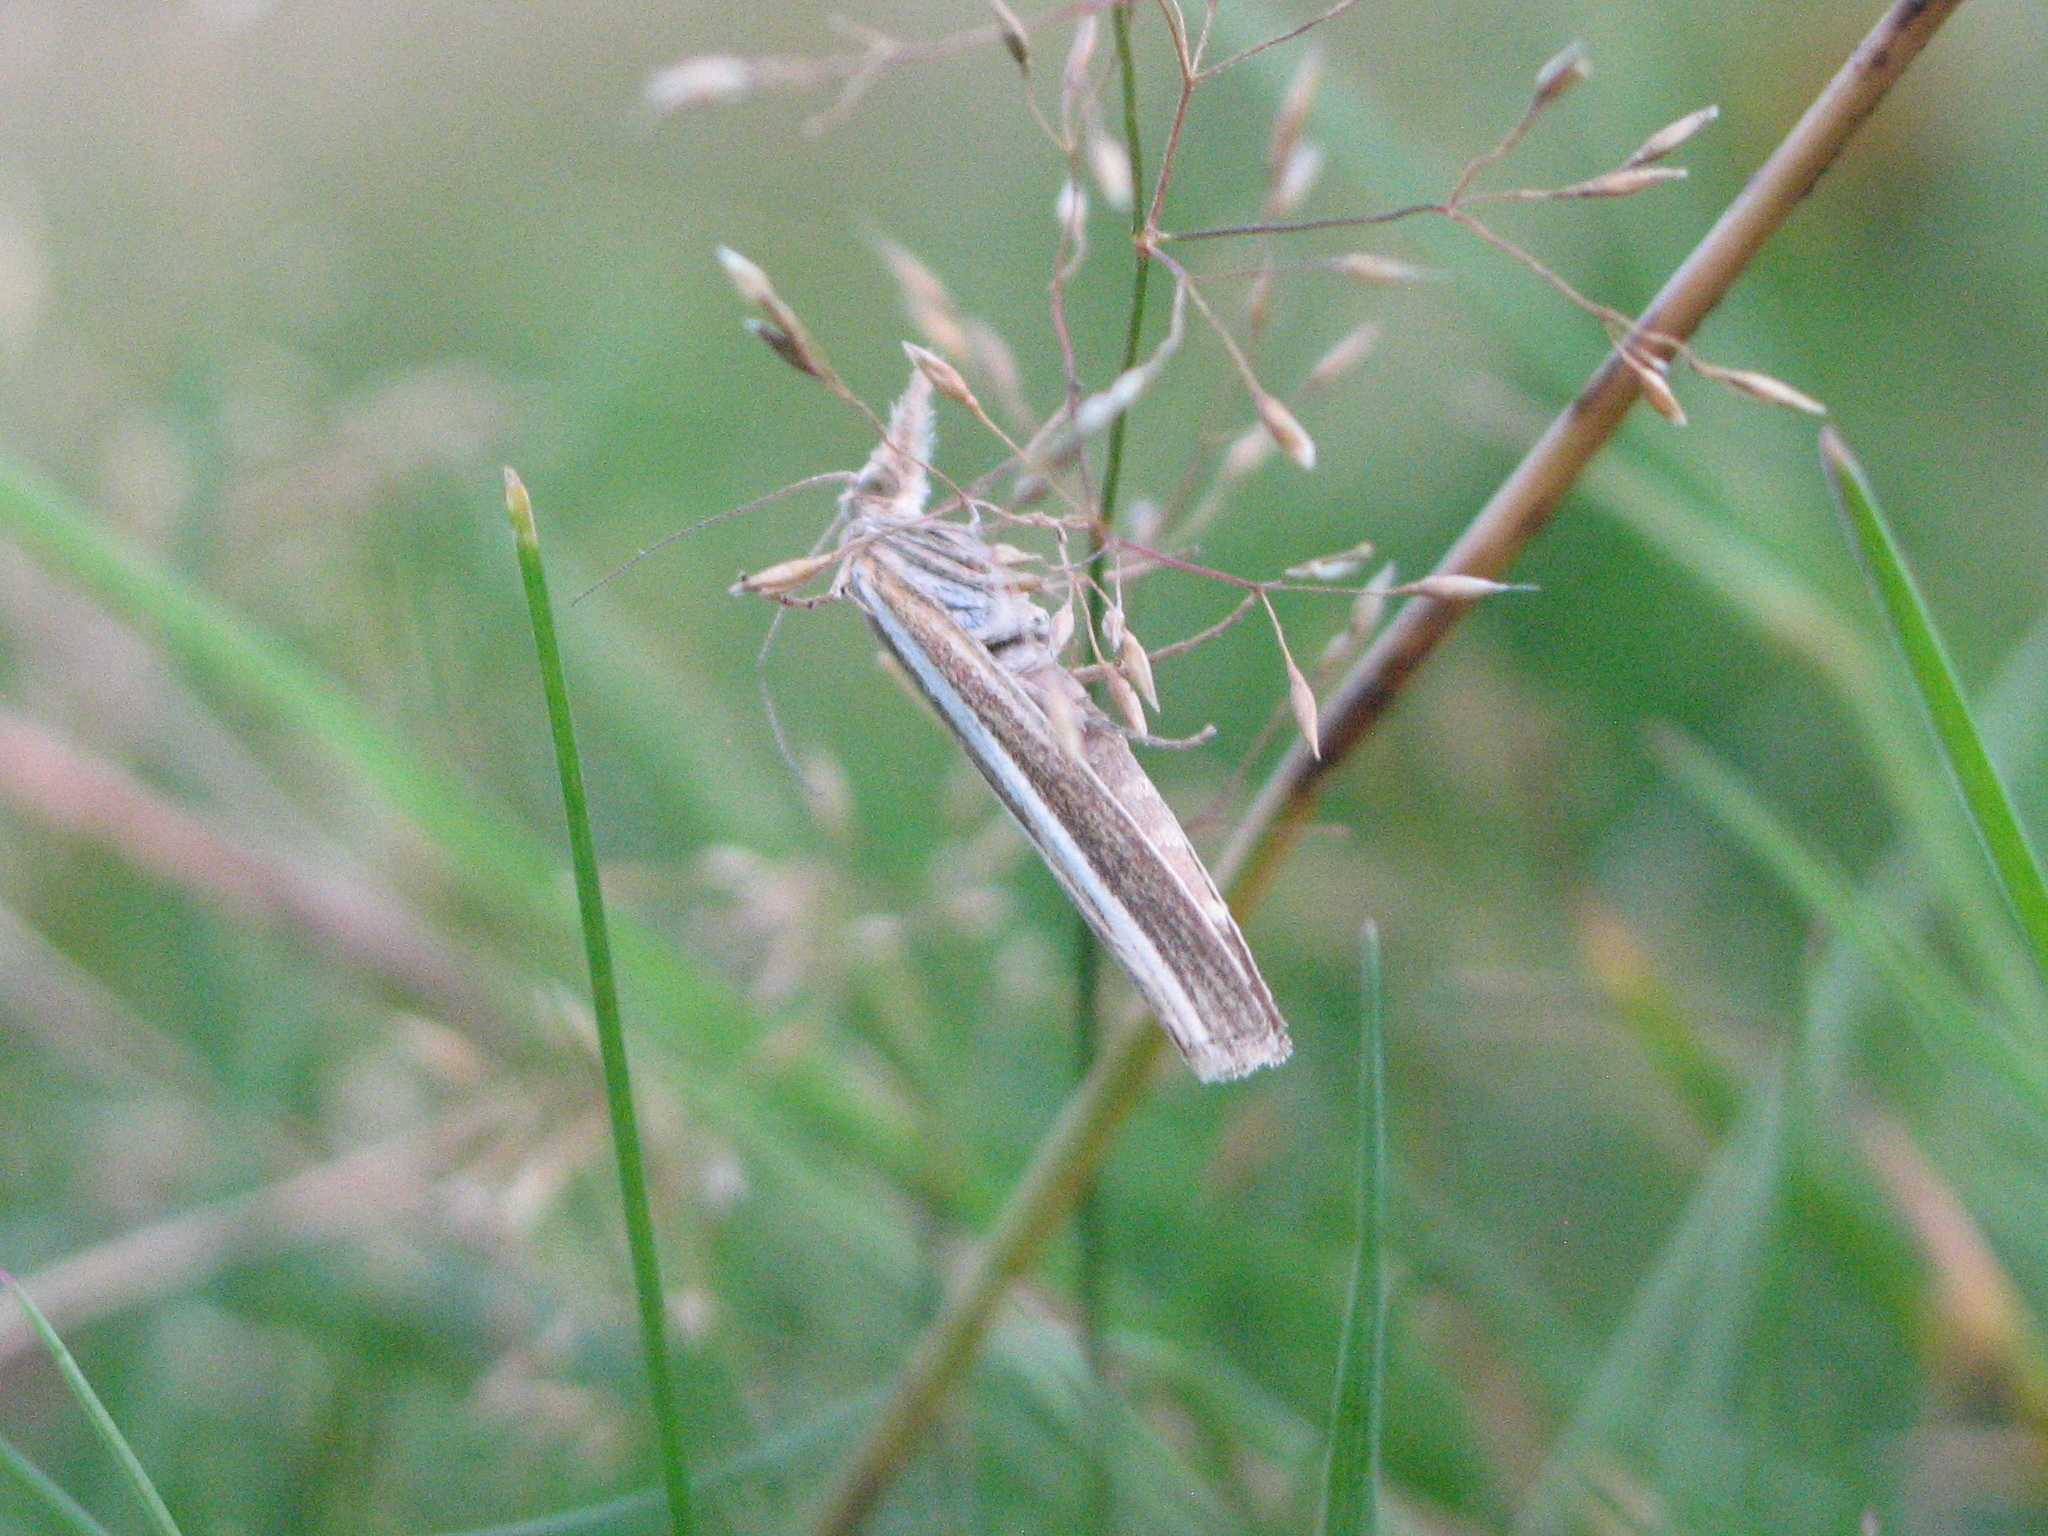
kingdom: Animalia
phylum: Arthropoda
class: Insecta
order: Lepidoptera
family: Crambidae
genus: Agriphila
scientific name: Agriphila tristellus
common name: Common grass-veneer
